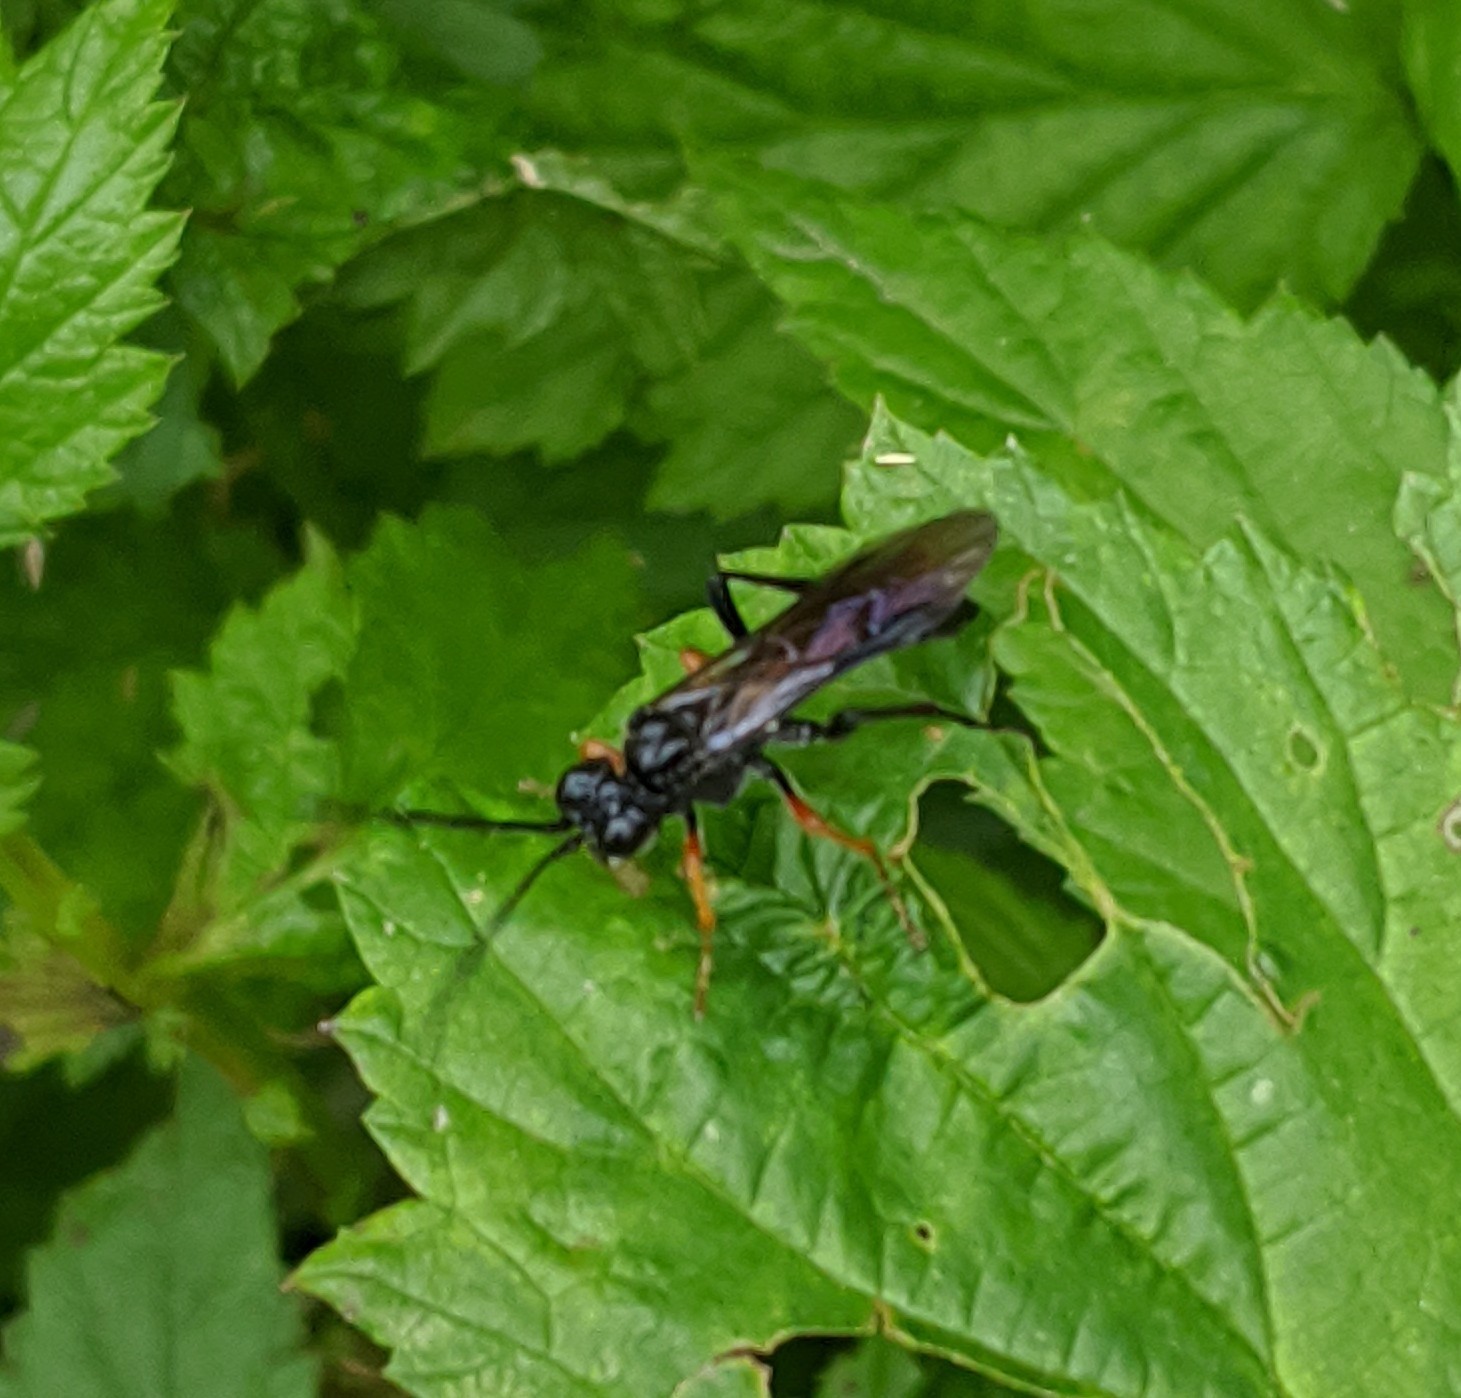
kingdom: Animalia
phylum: Arthropoda
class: Insecta
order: Hymenoptera
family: Tenthredinidae
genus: Tenthredo
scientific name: Tenthredo mandibularis
